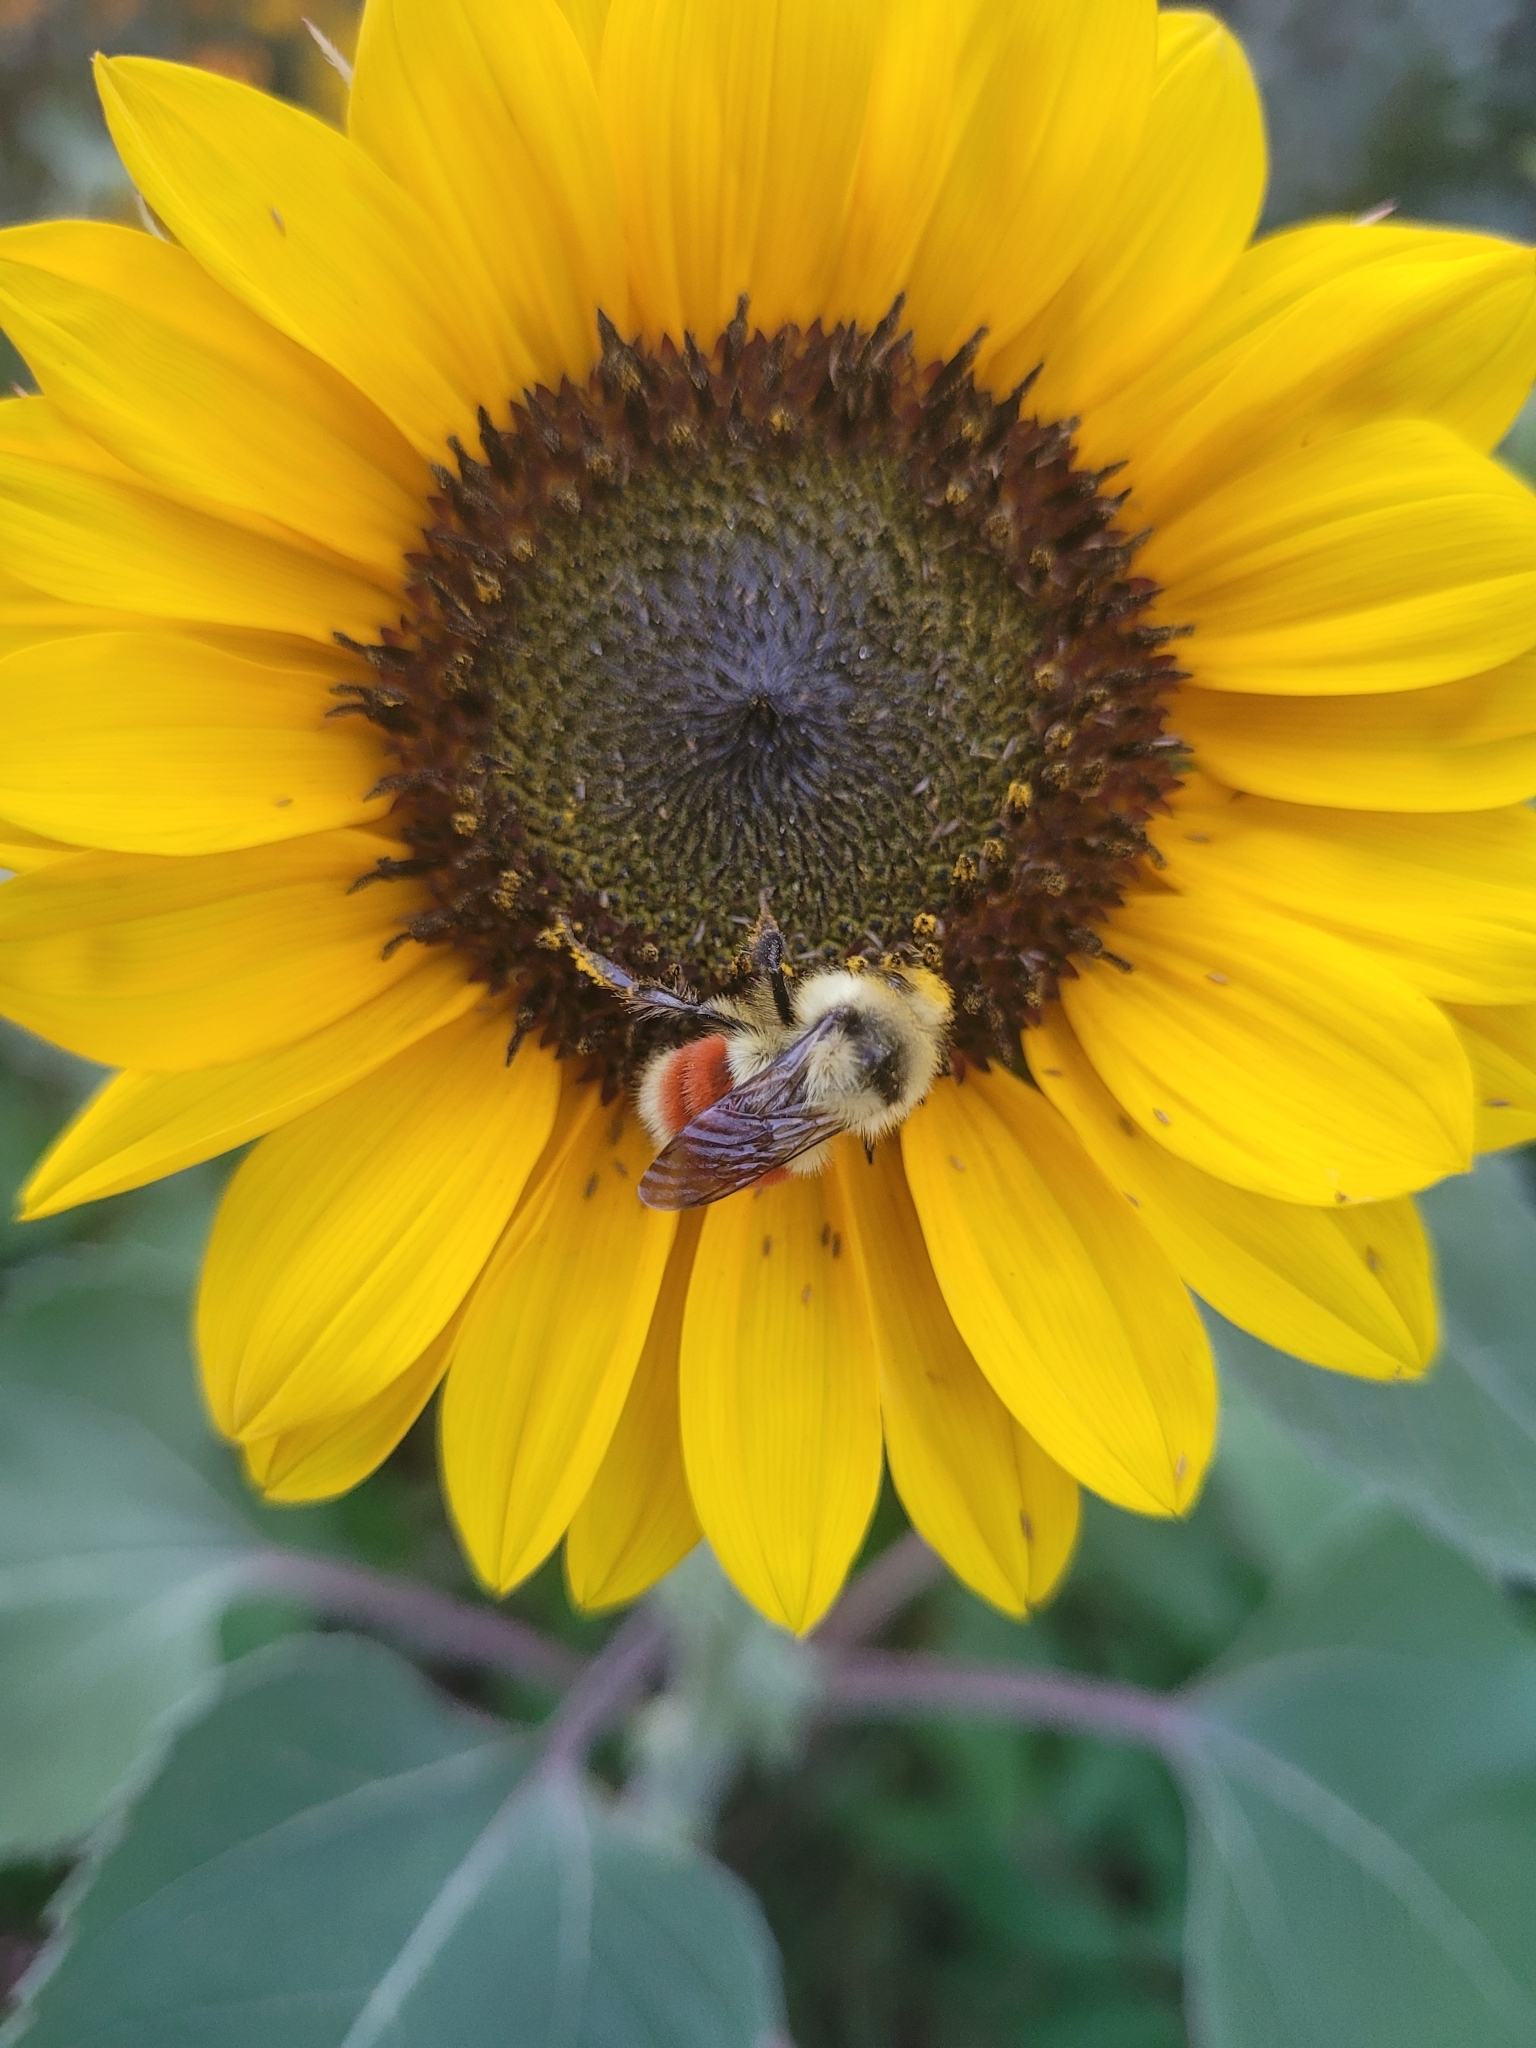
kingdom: Animalia
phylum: Arthropoda
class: Insecta
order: Hymenoptera
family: Apidae
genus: Bombus
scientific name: Bombus huntii
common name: Hunt bumble bee
